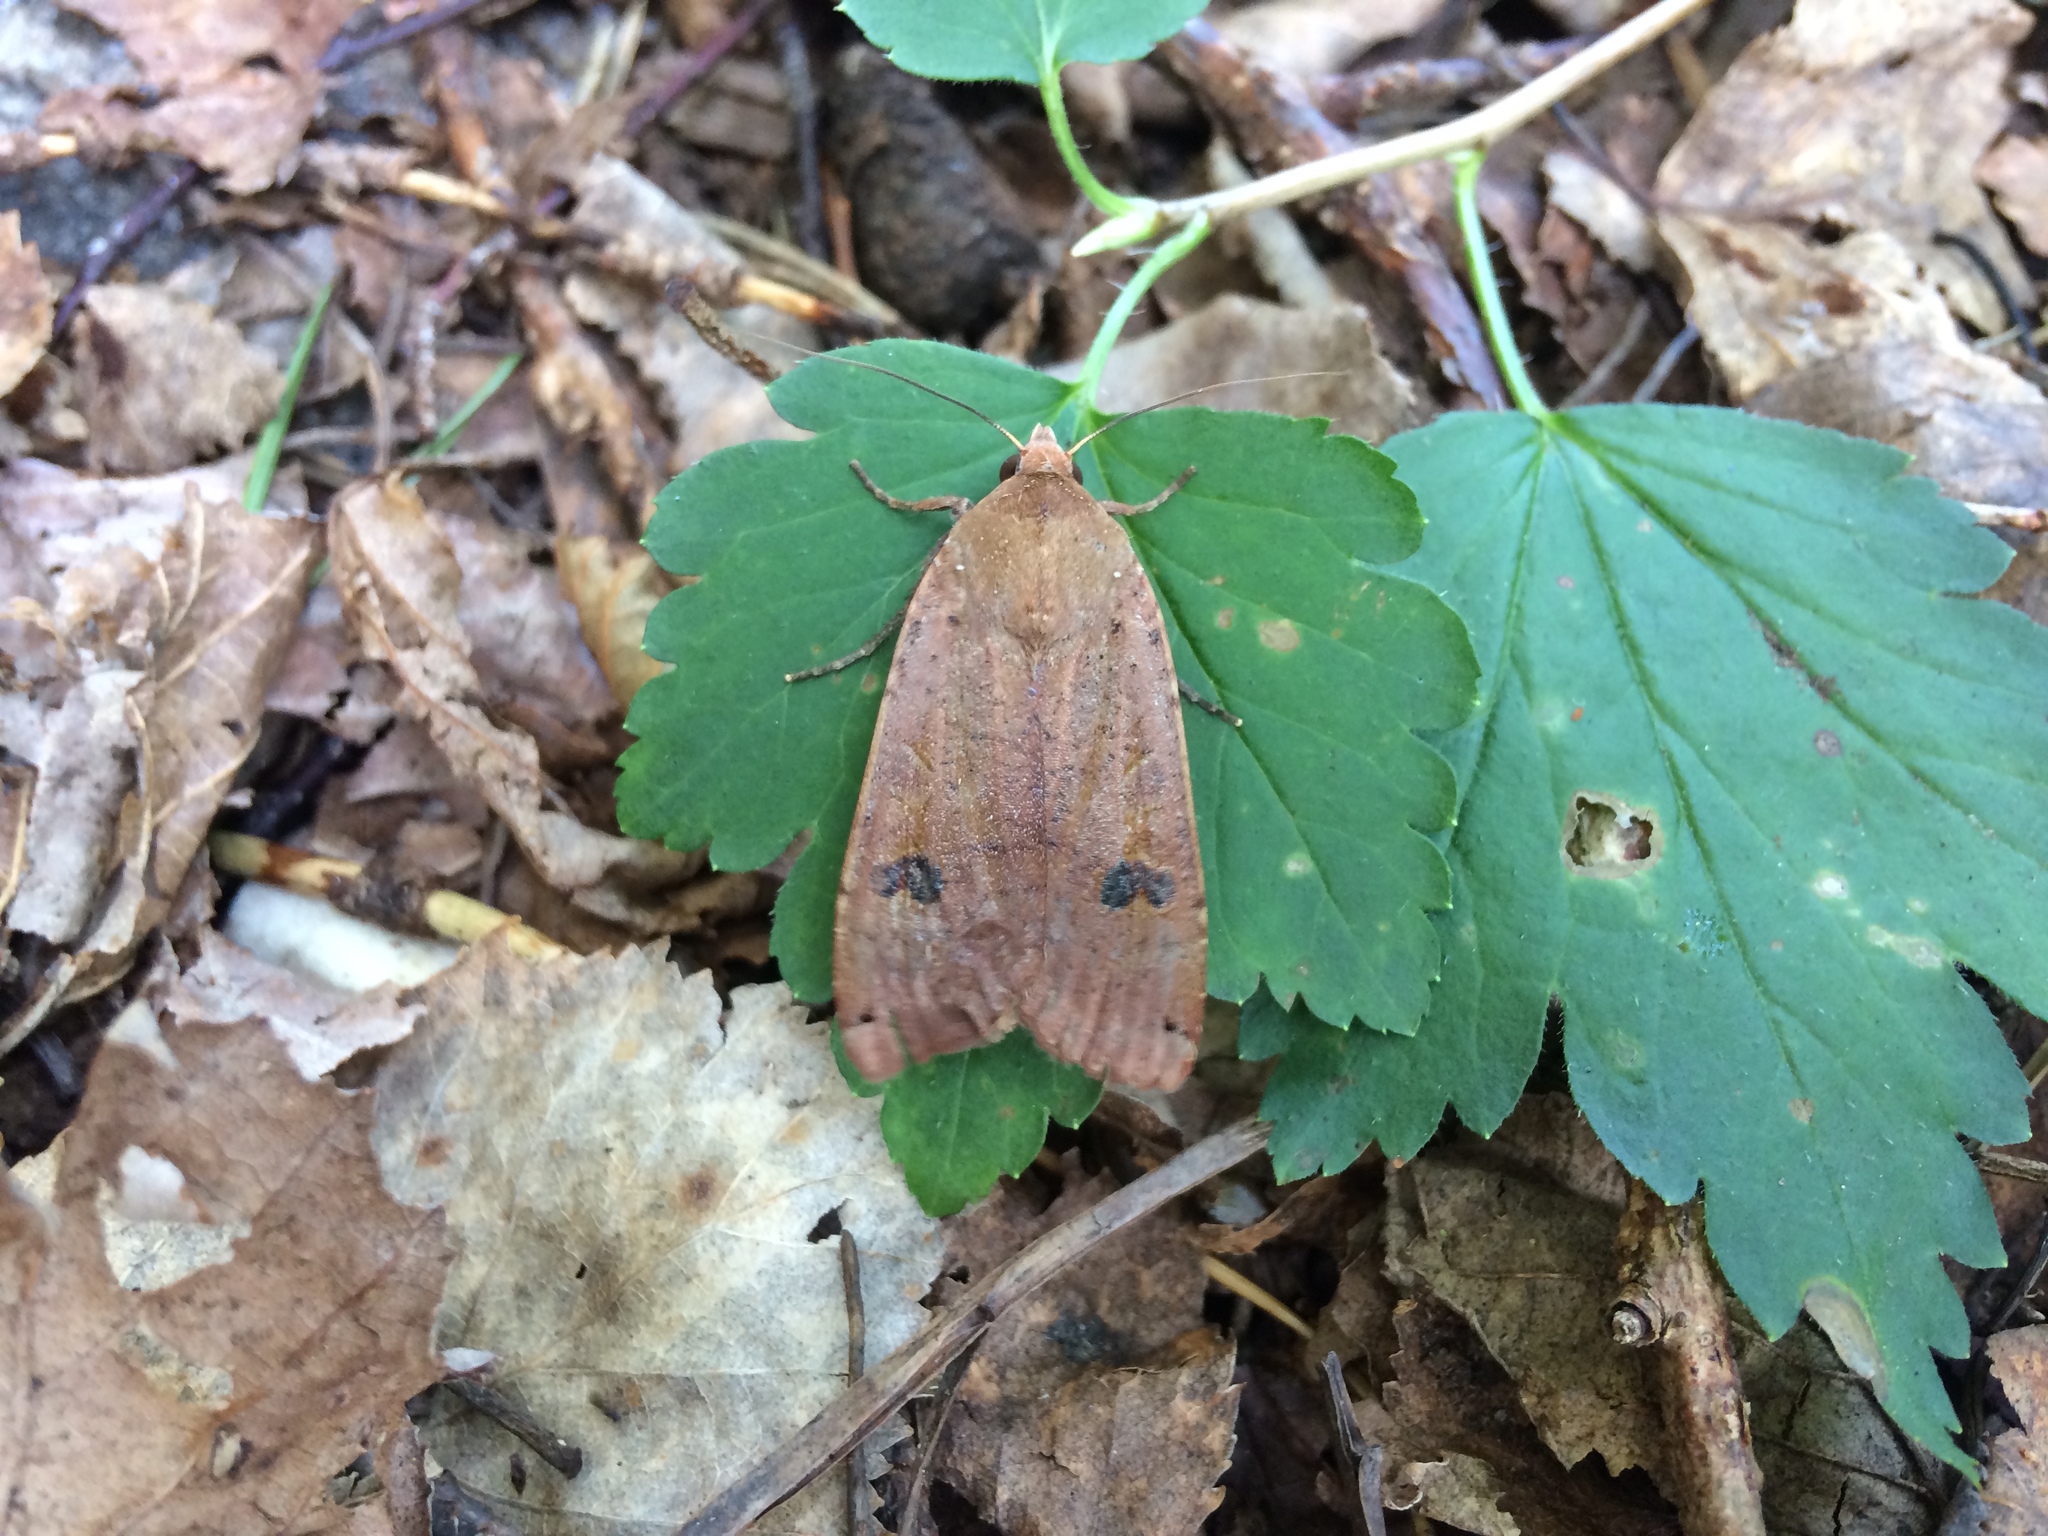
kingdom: Animalia
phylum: Arthropoda
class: Insecta
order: Lepidoptera
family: Noctuidae
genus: Noctua
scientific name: Noctua pronuba
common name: Large yellow underwing
